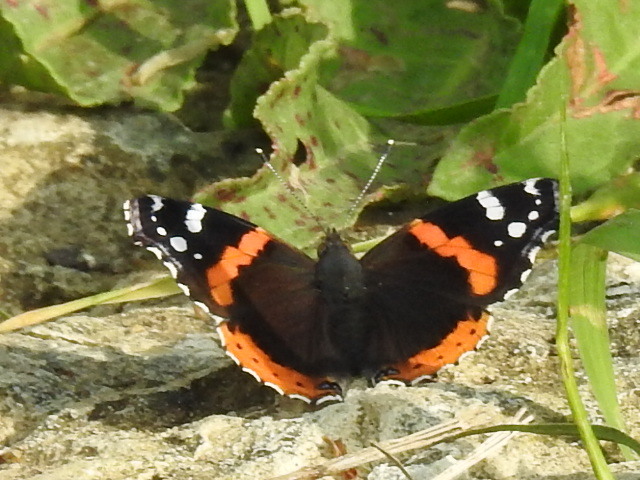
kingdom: Animalia
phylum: Arthropoda
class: Insecta
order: Lepidoptera
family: Nymphalidae
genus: Vanessa
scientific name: Vanessa atalanta
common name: Red admiral
